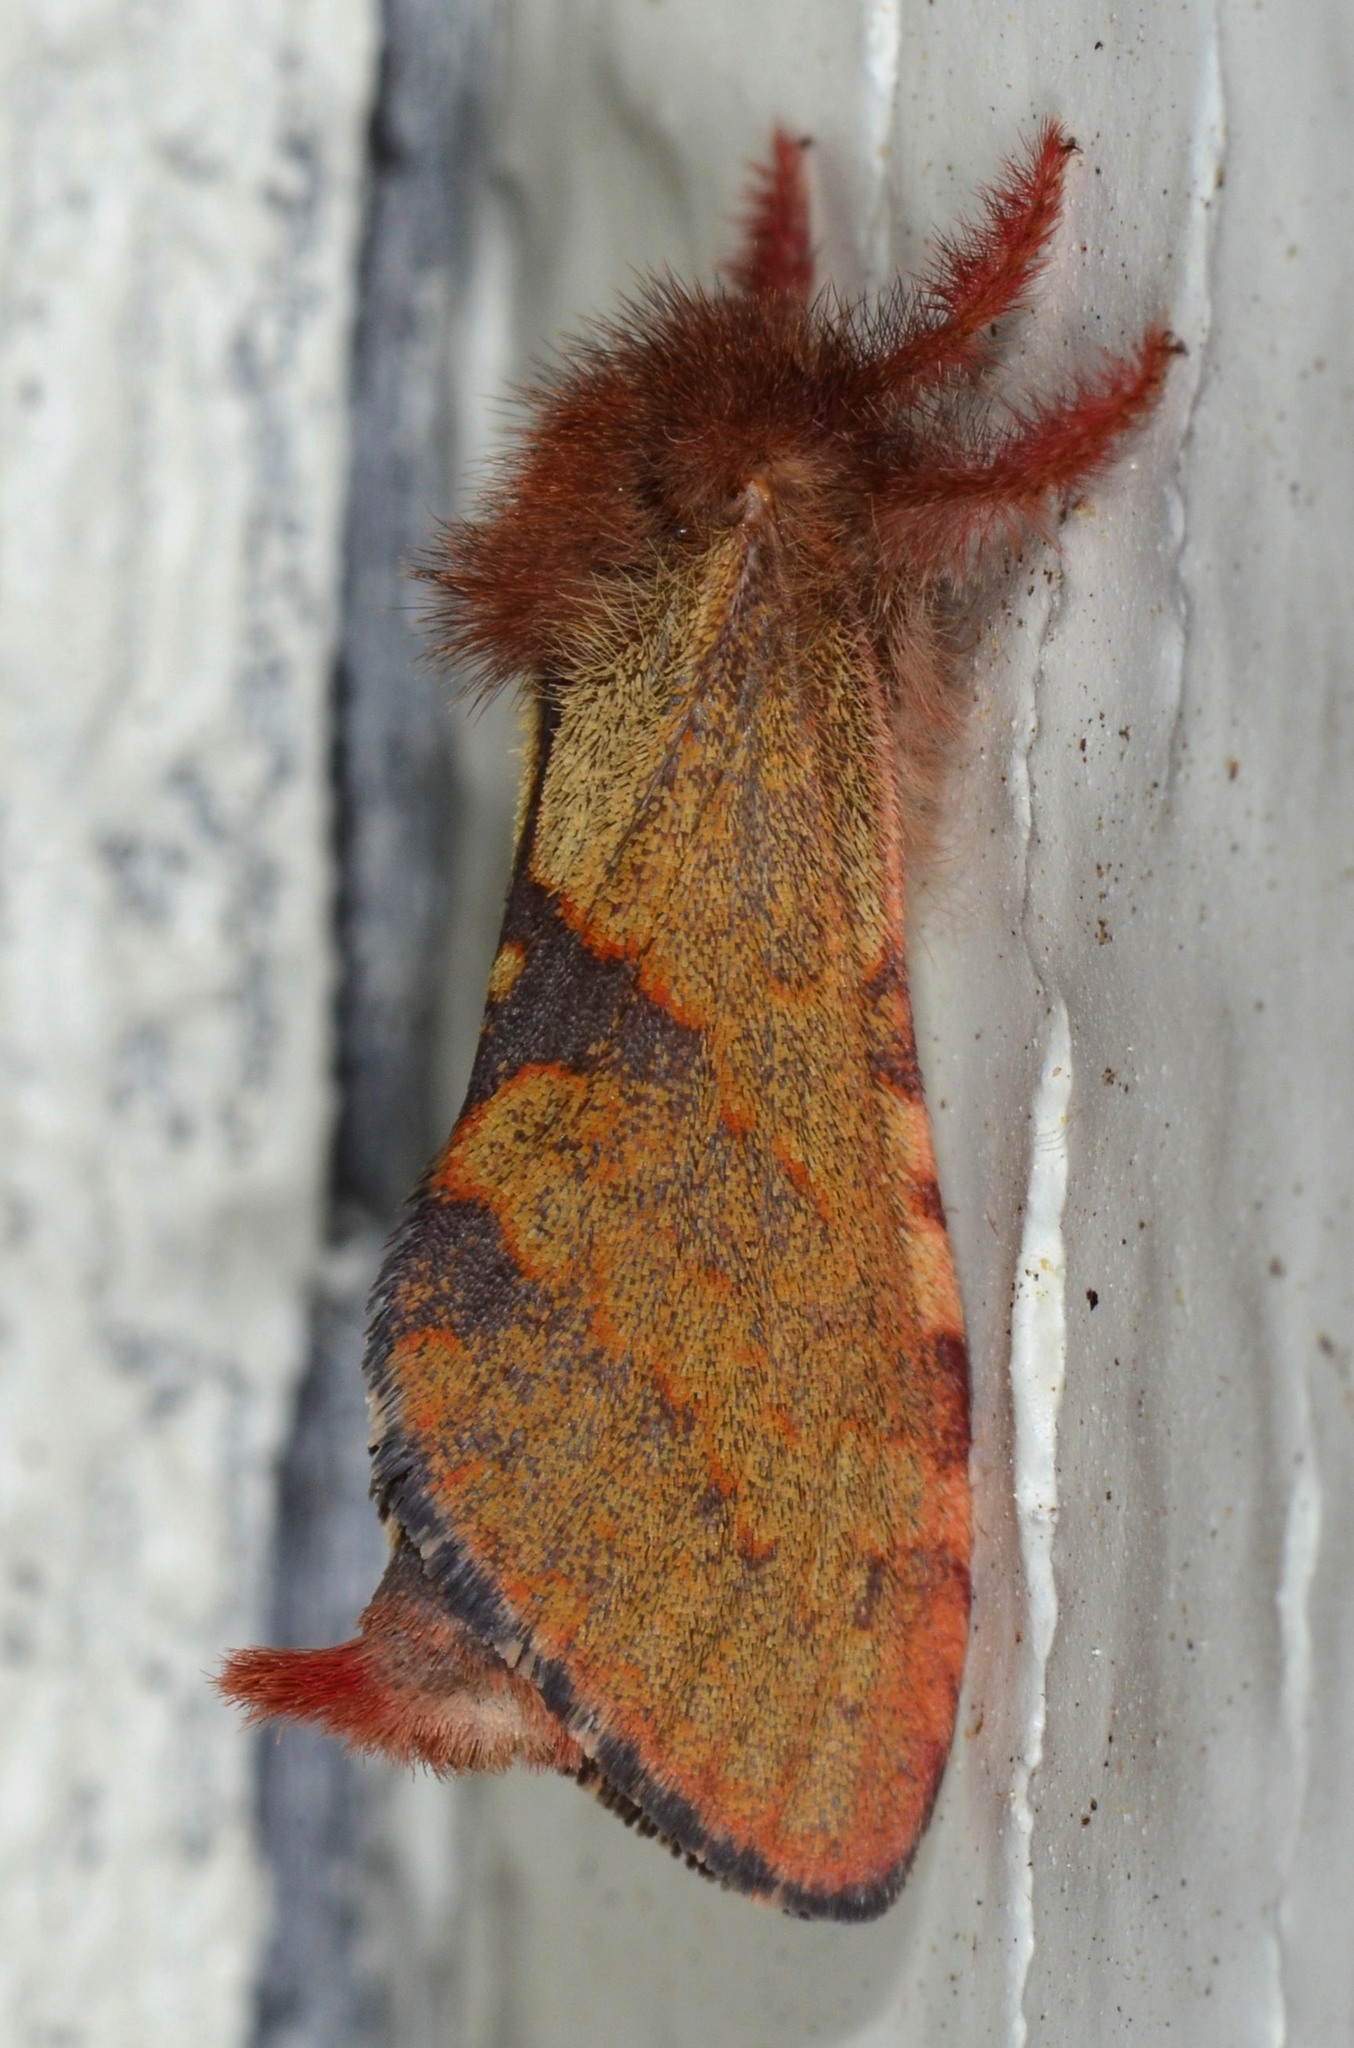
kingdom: Animalia
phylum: Arthropoda
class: Insecta
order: Lepidoptera
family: Hepialidae
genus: Phymatopus
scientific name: Phymatopus hectoides
